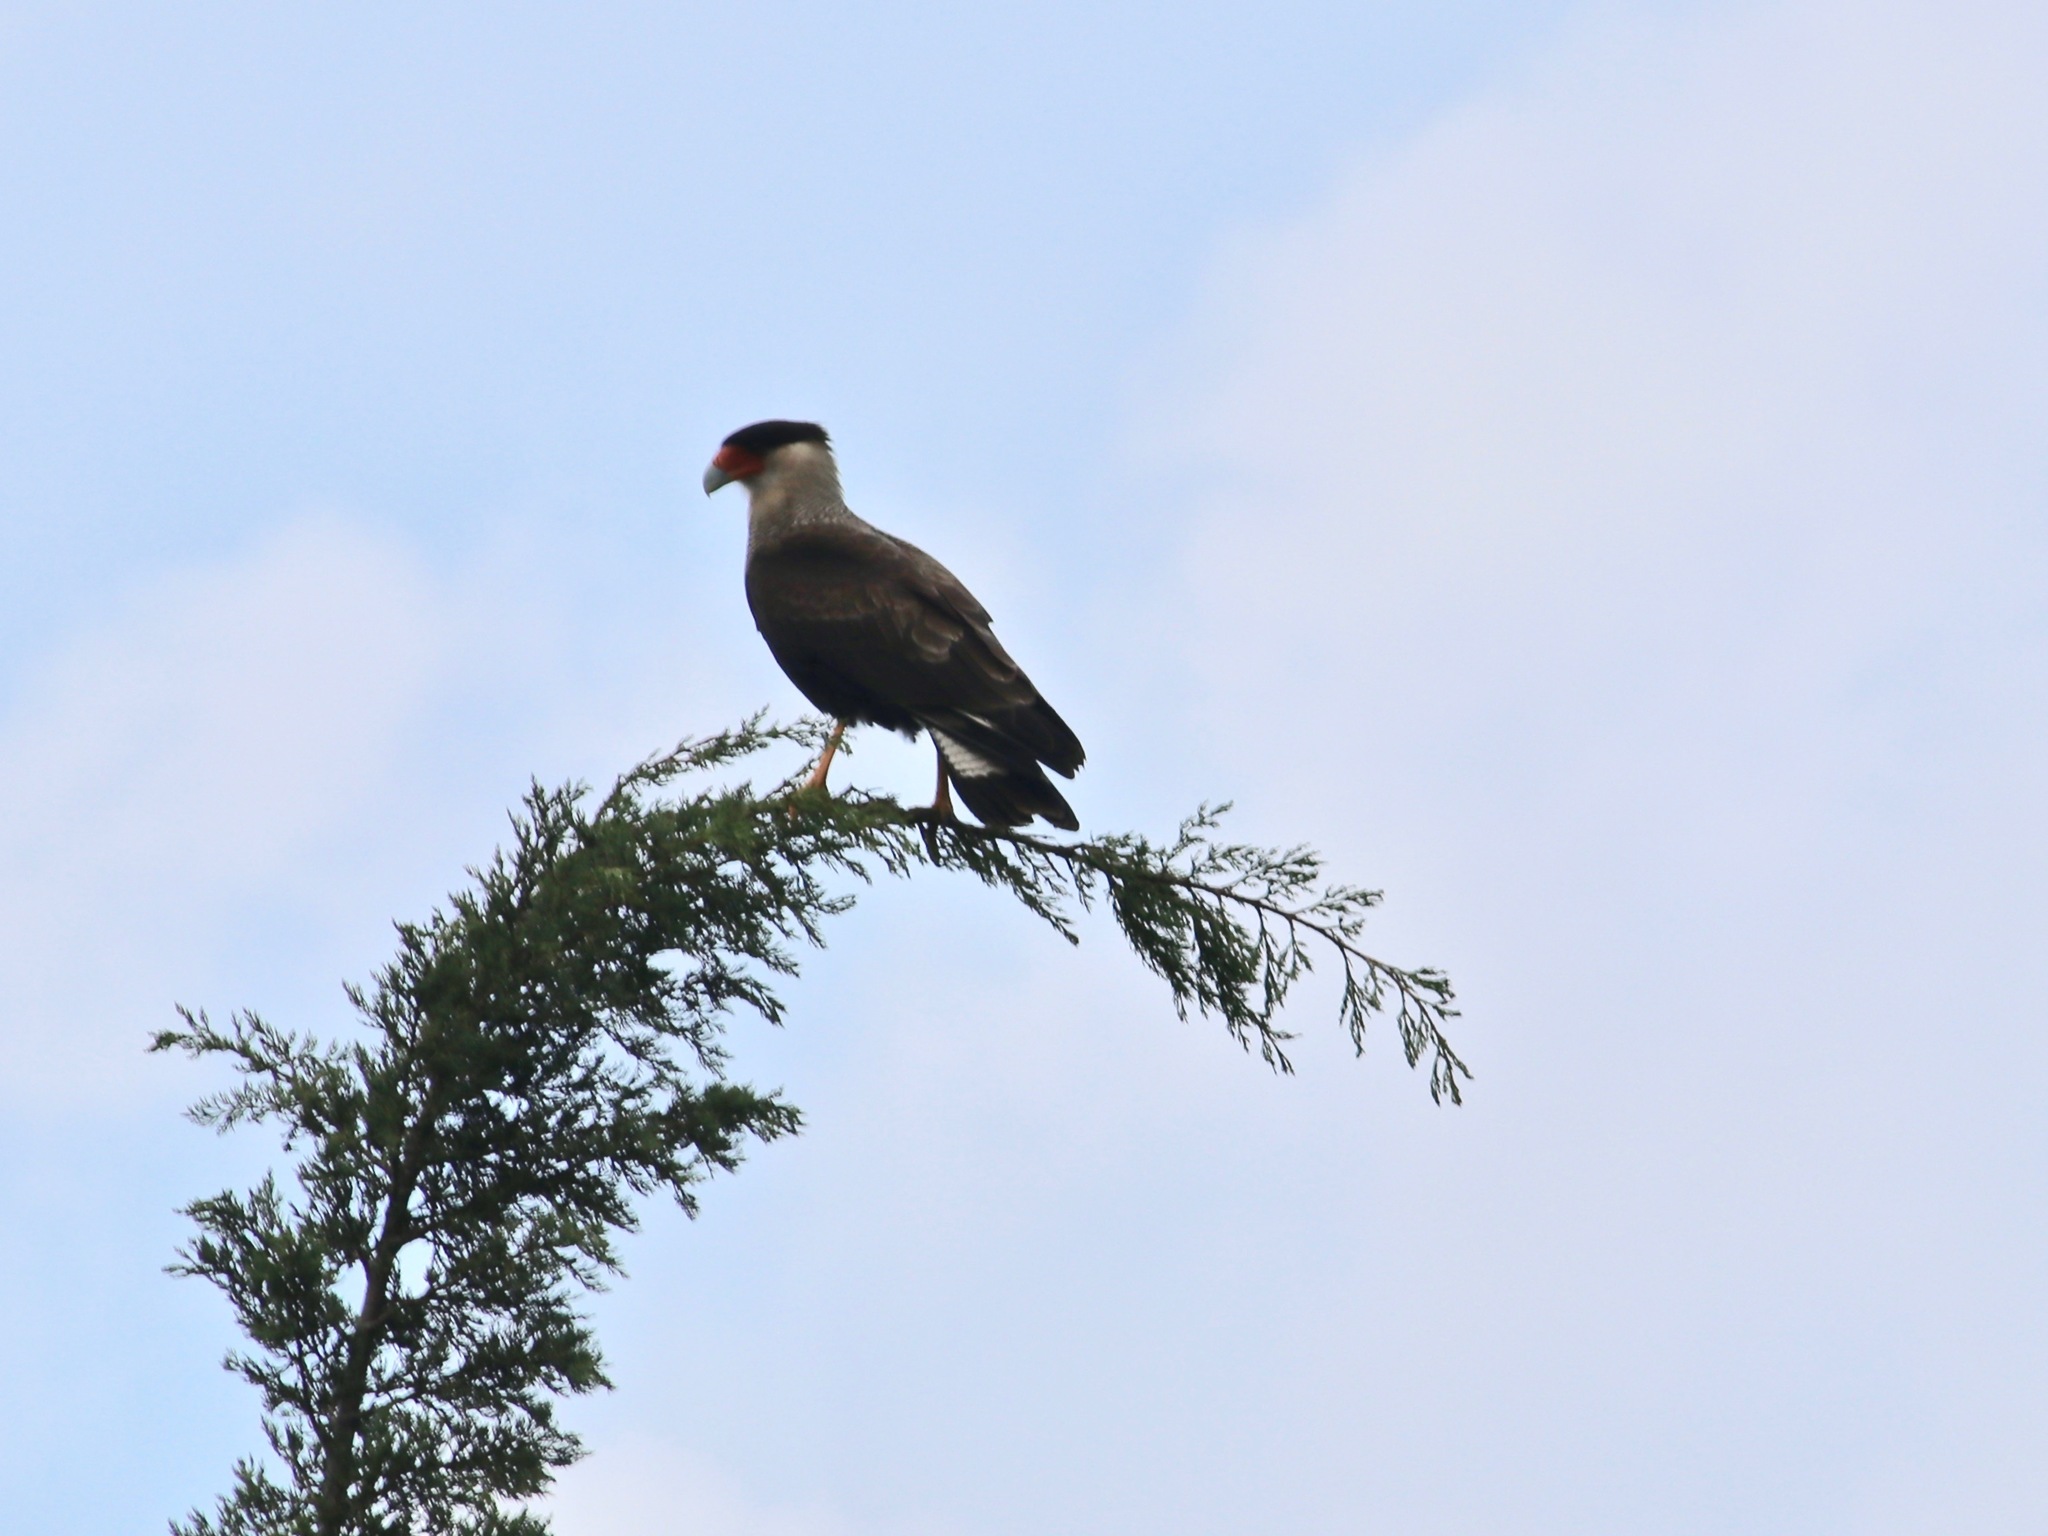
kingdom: Animalia
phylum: Chordata
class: Aves
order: Falconiformes
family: Falconidae
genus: Caracara
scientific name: Caracara plancus
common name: Southern caracara
